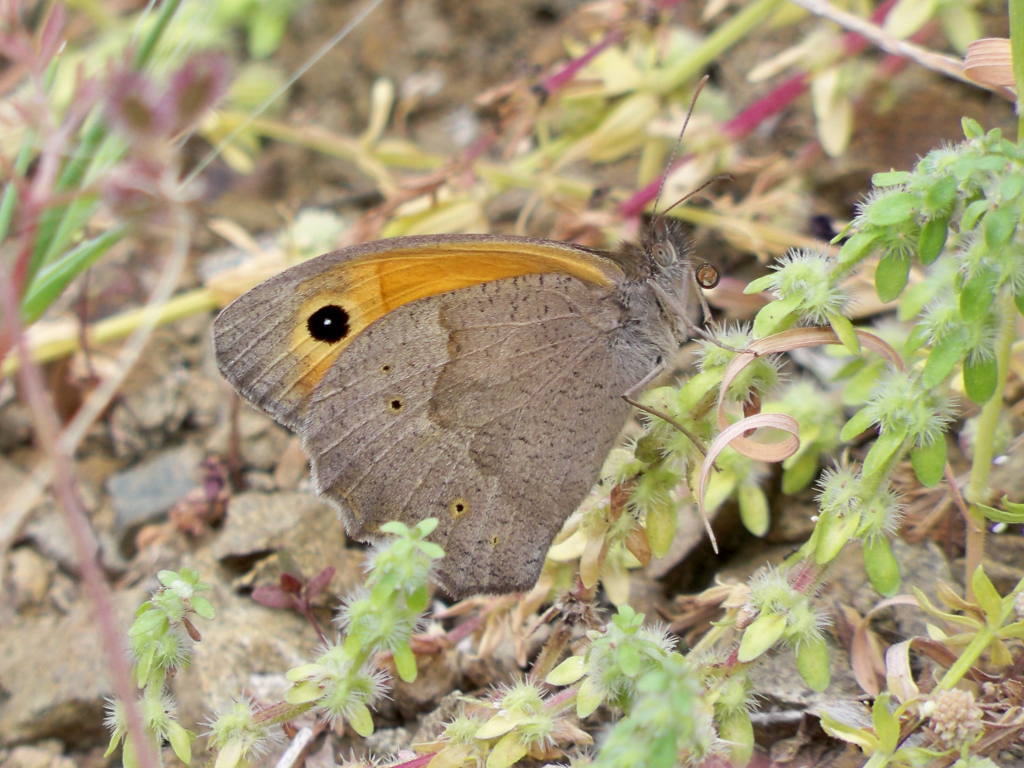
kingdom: Animalia
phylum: Arthropoda
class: Insecta
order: Lepidoptera
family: Nymphalidae
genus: Maniola
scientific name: Maniola jurtina
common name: Meadow brown
